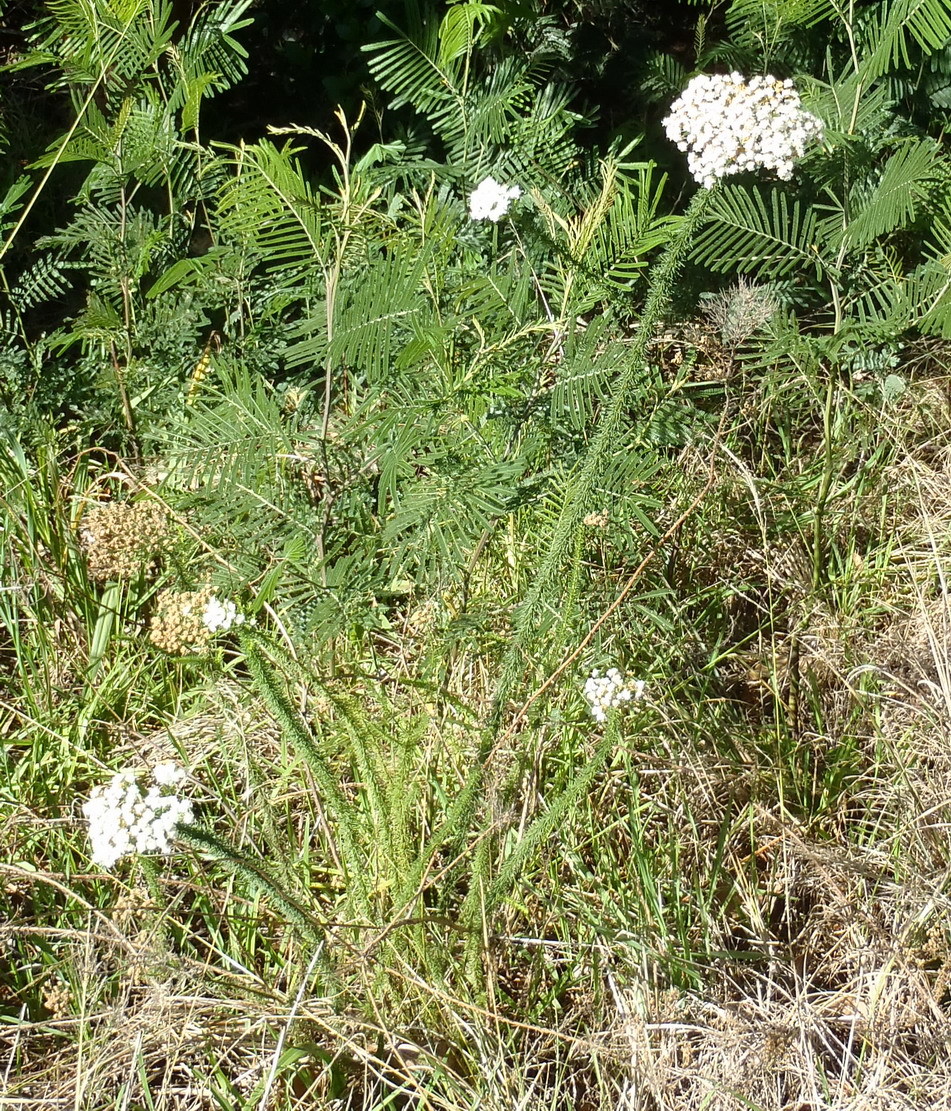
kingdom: Plantae
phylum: Tracheophyta
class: Magnoliopsida
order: Lamiales
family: Scrophulariaceae
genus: Selago
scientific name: Selago corymbosa
